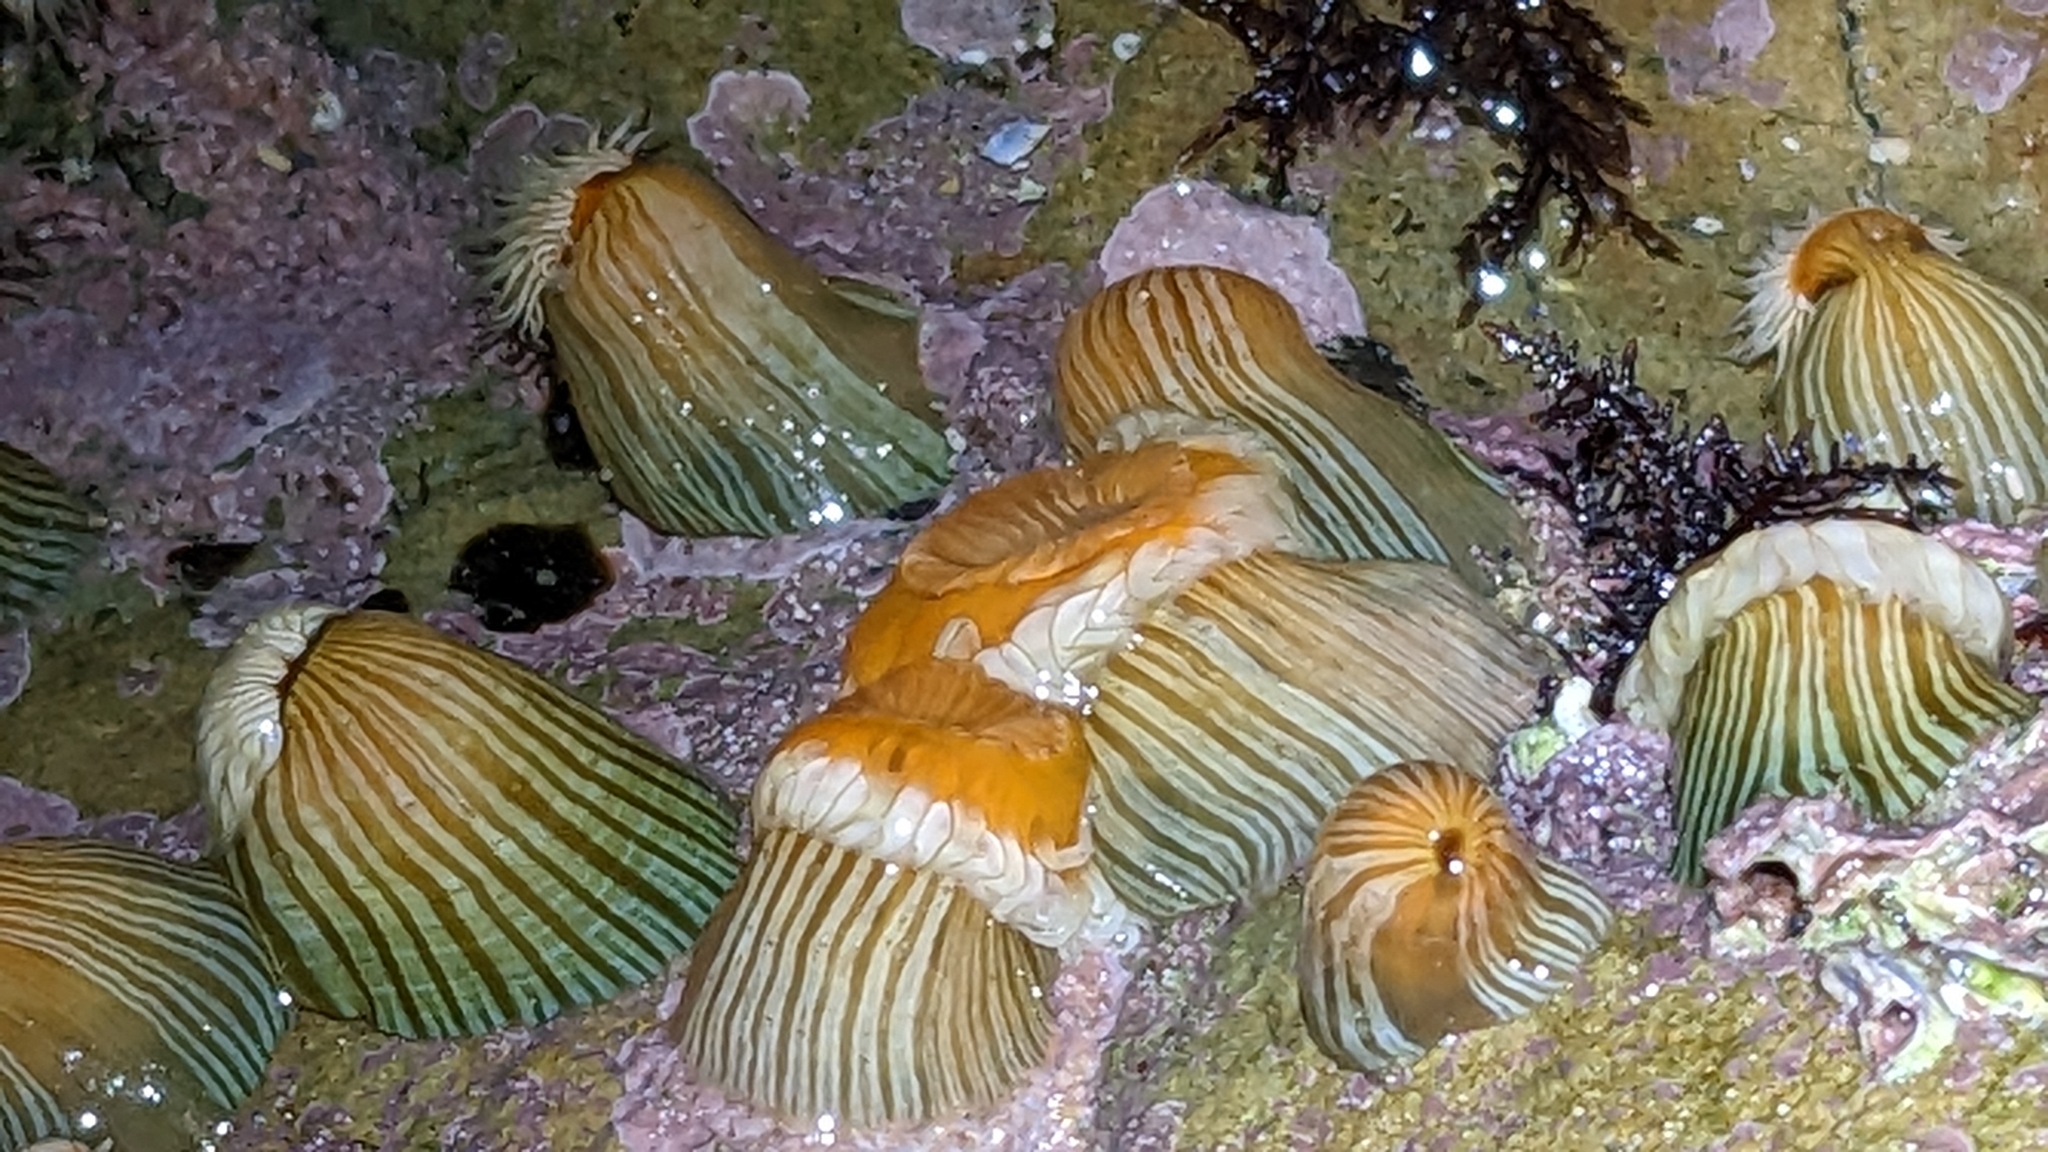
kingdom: Animalia
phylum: Cnidaria
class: Anthozoa
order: Actiniaria
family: Sagartiidae
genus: Anthothoe
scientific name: Anthothoe albocincta
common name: Orange striped anemone
